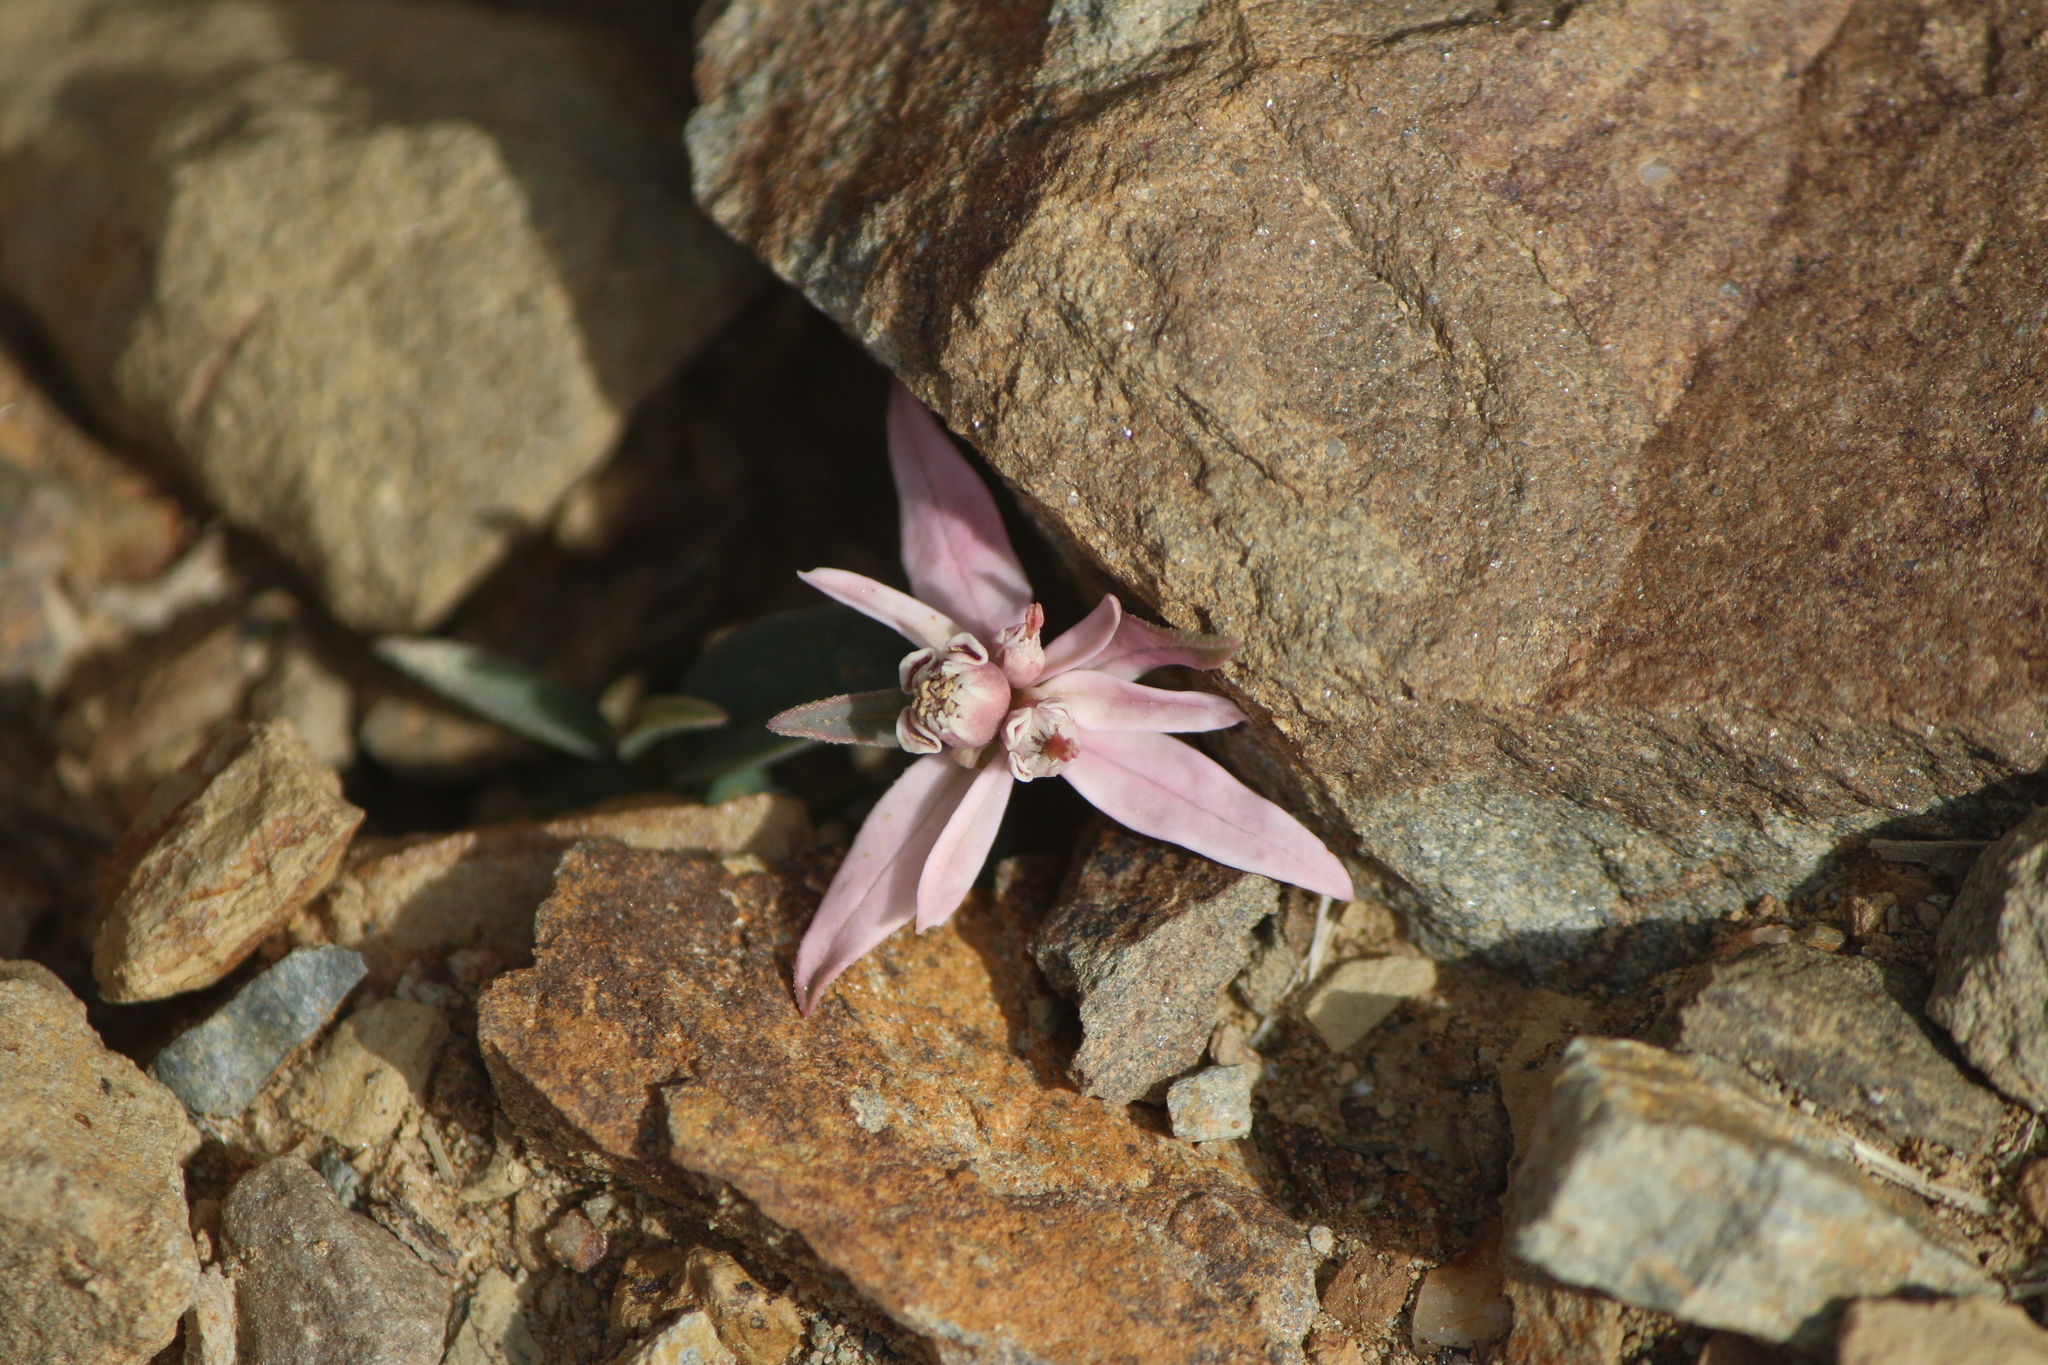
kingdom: Plantae
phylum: Tracheophyta
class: Magnoliopsida
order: Malpighiales
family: Euphorbiaceae
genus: Euphorbia
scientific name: Euphorbia radians
